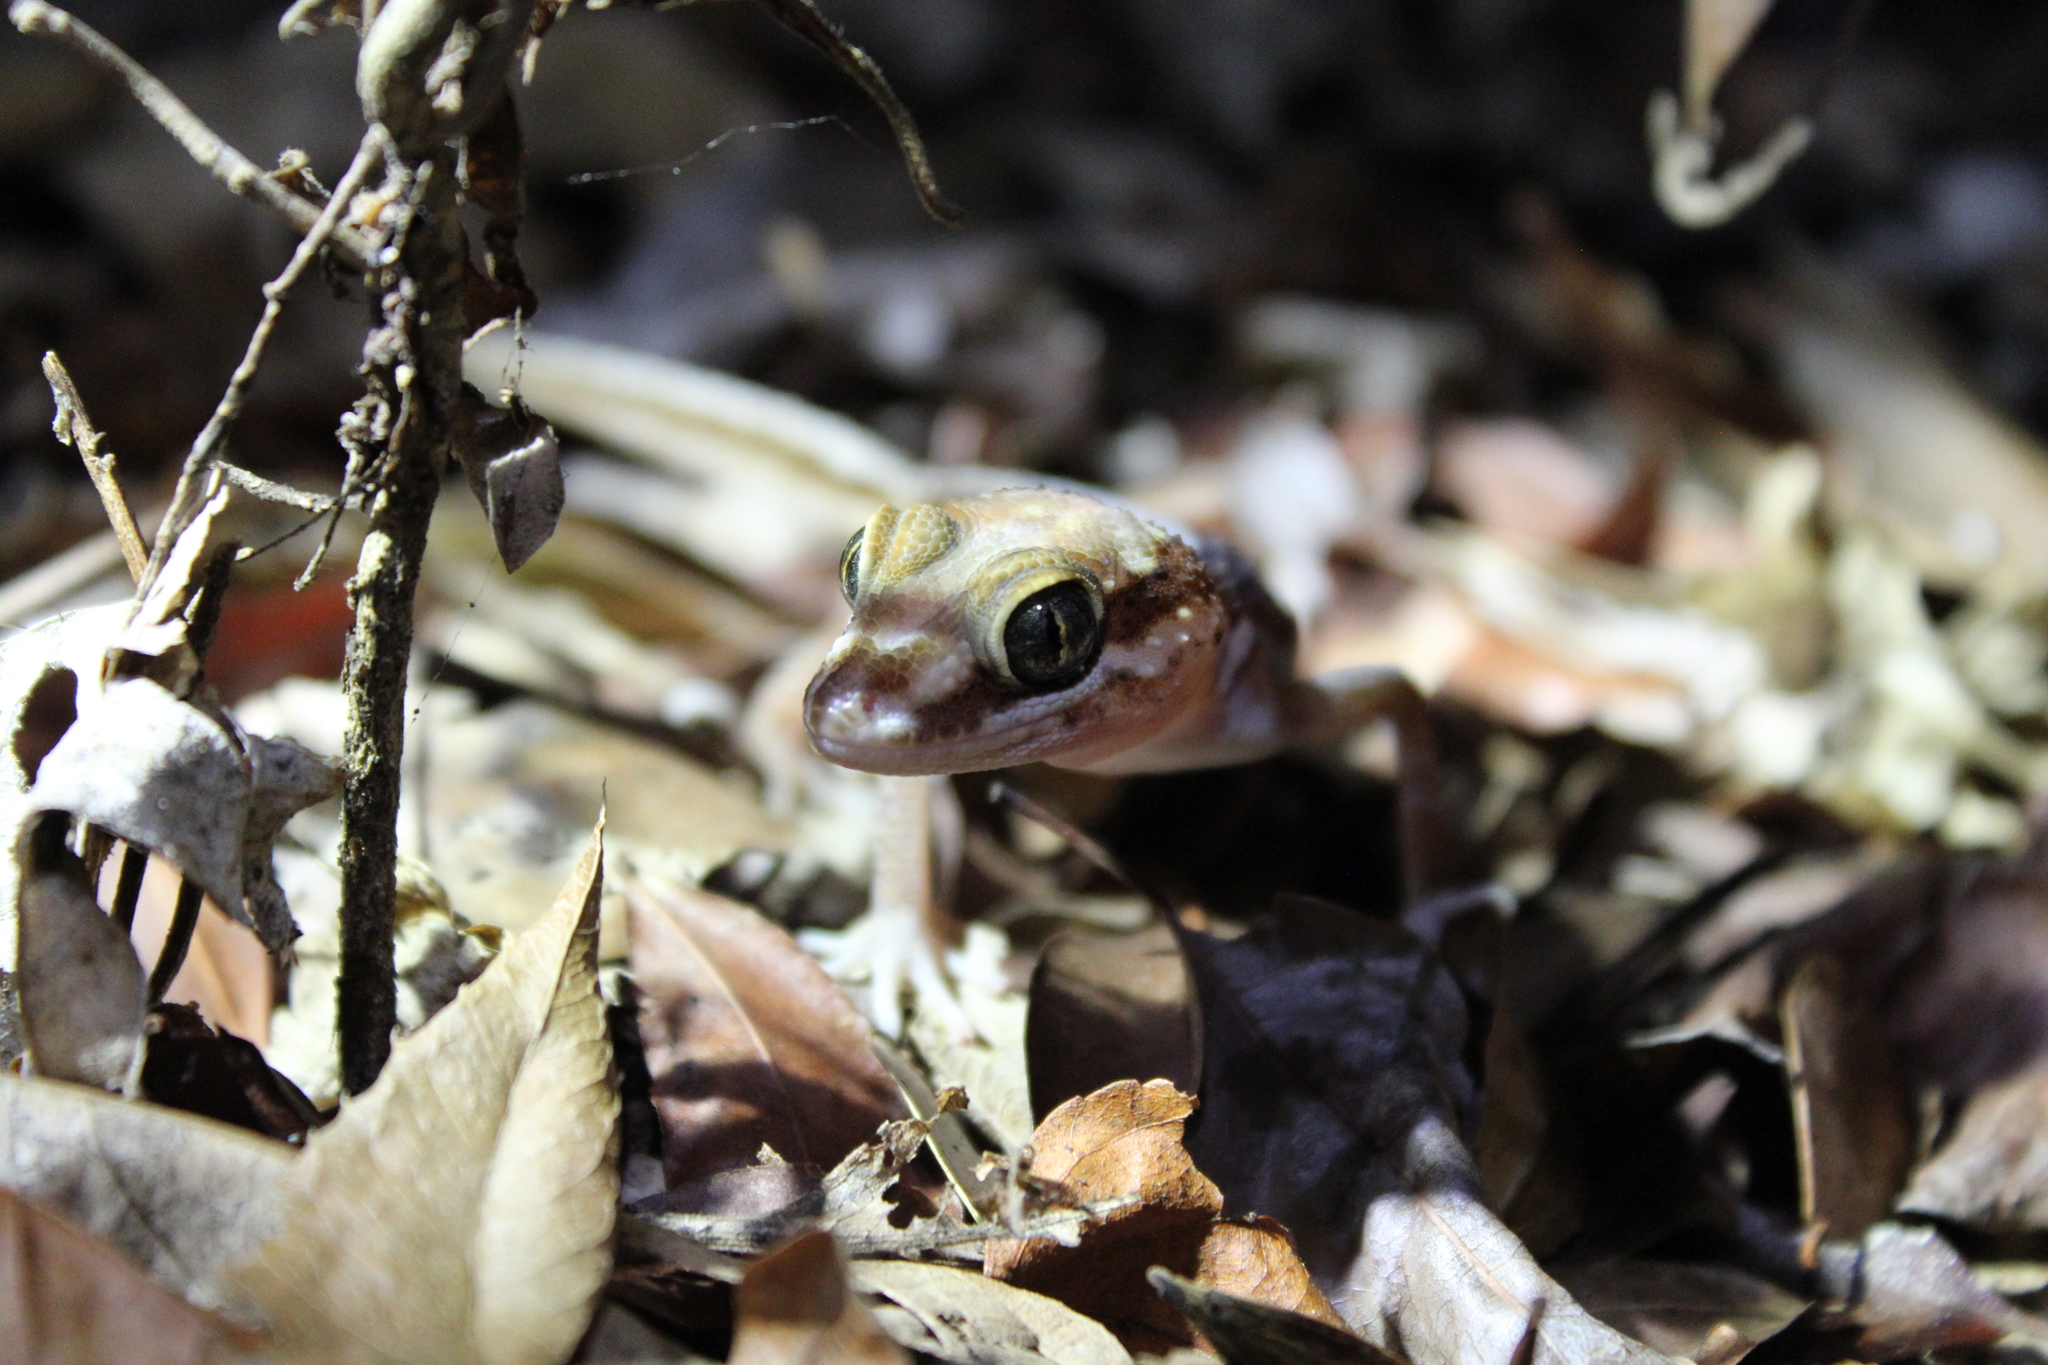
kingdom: Animalia
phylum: Chordata
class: Squamata
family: Gekkonidae
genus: Paroedura
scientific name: Paroedura picta
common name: Panther gecko
